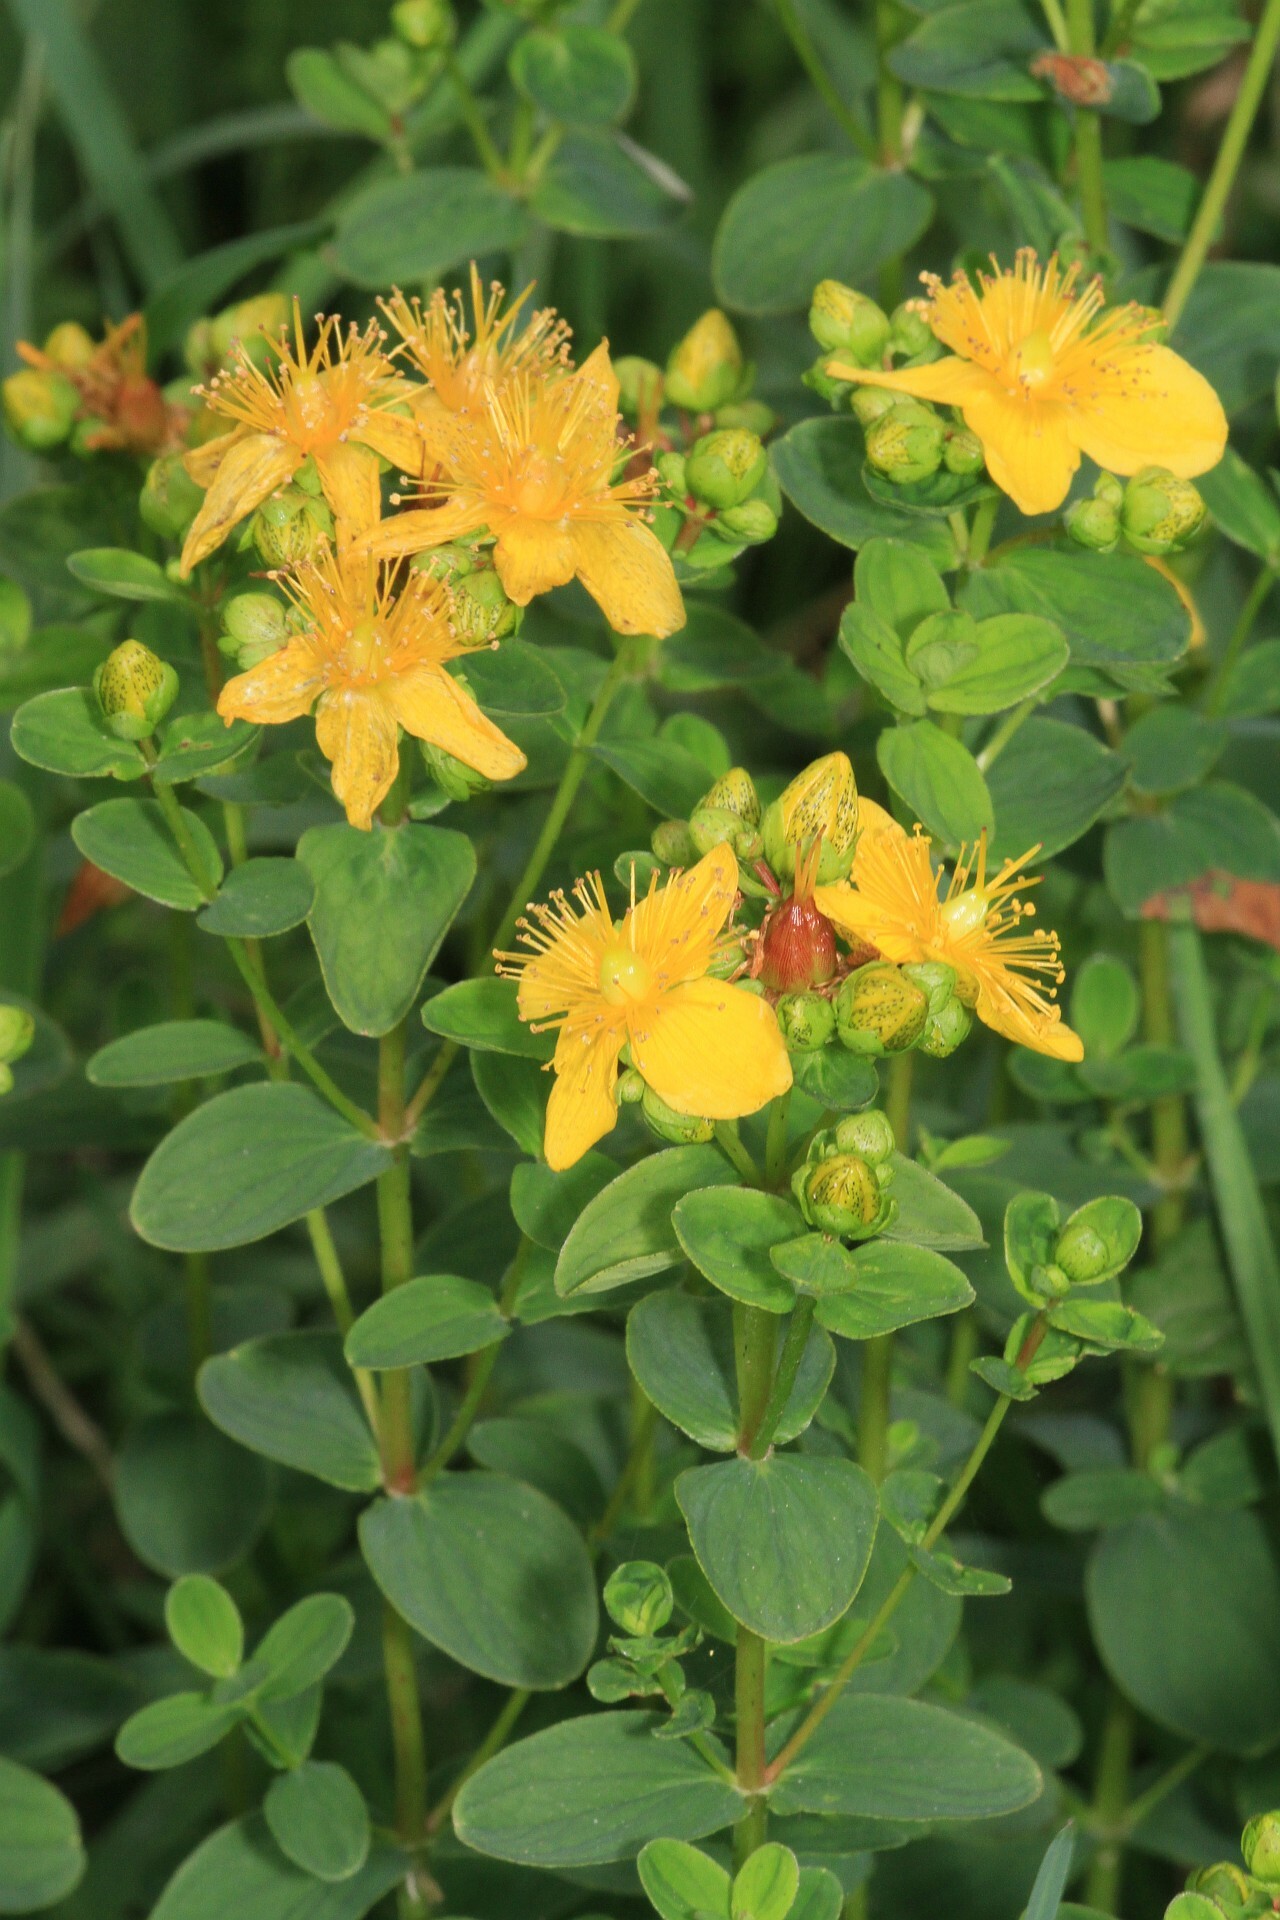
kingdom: Plantae
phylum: Tracheophyta
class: Magnoliopsida
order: Malpighiales
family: Hypericaceae
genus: Hypericum
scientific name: Hypericum maculatum
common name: Imperforate st. john's-wort
